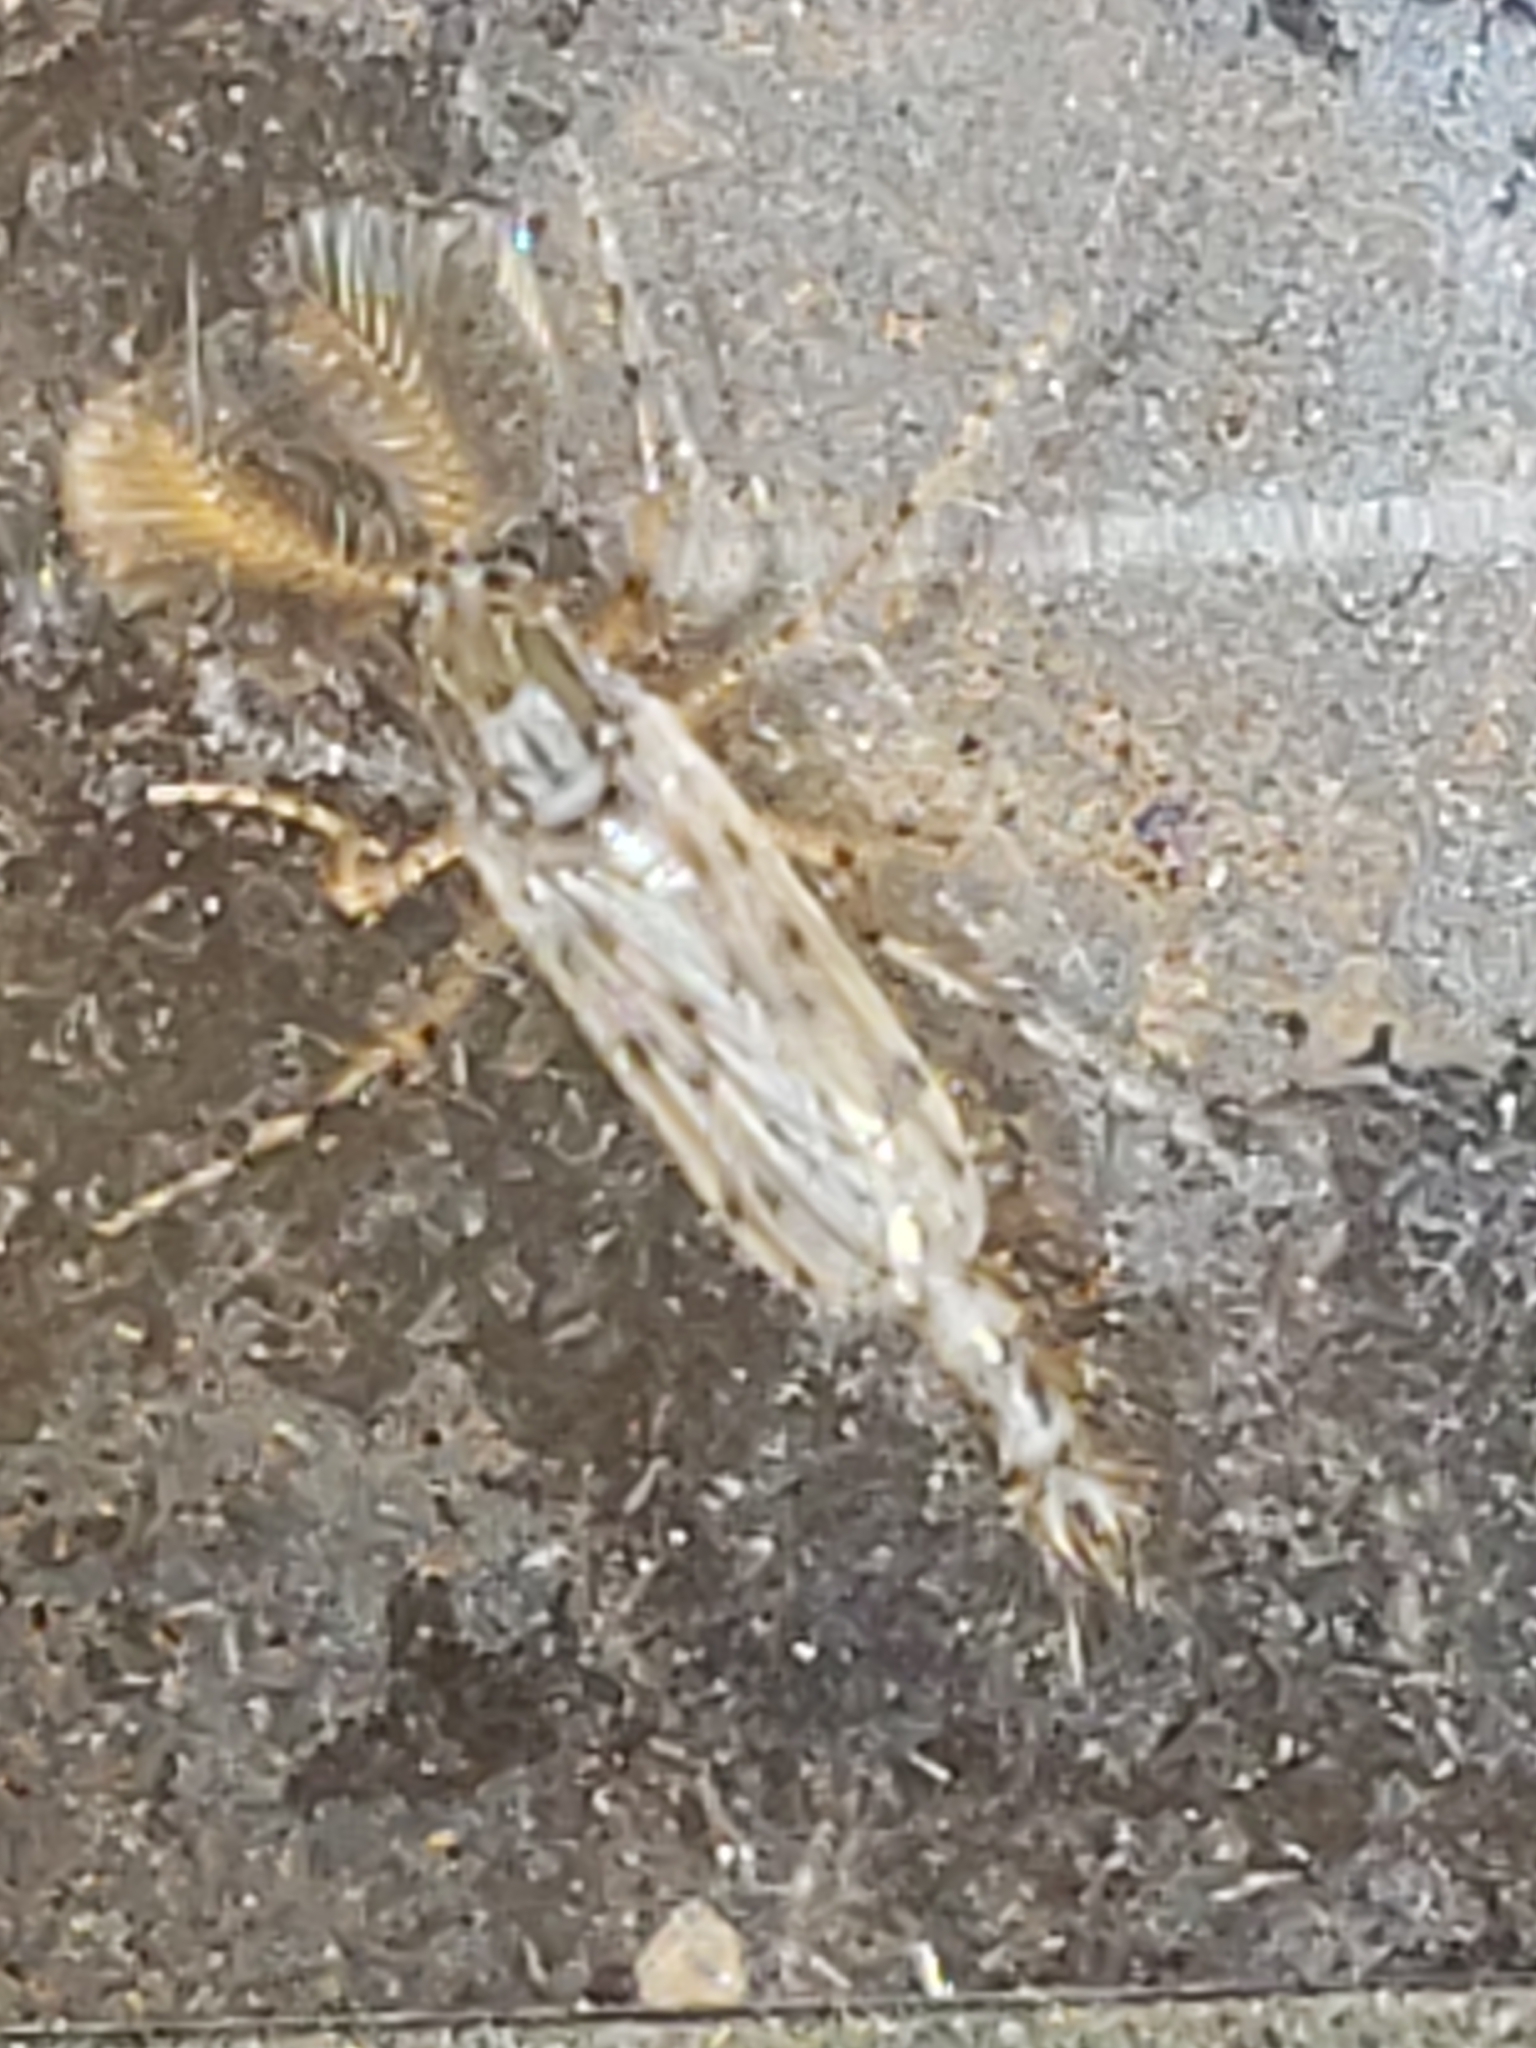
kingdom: Animalia
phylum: Arthropoda
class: Insecta
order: Diptera
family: Chaoboridae
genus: Chaoborus
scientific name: Chaoborus punctipennis
